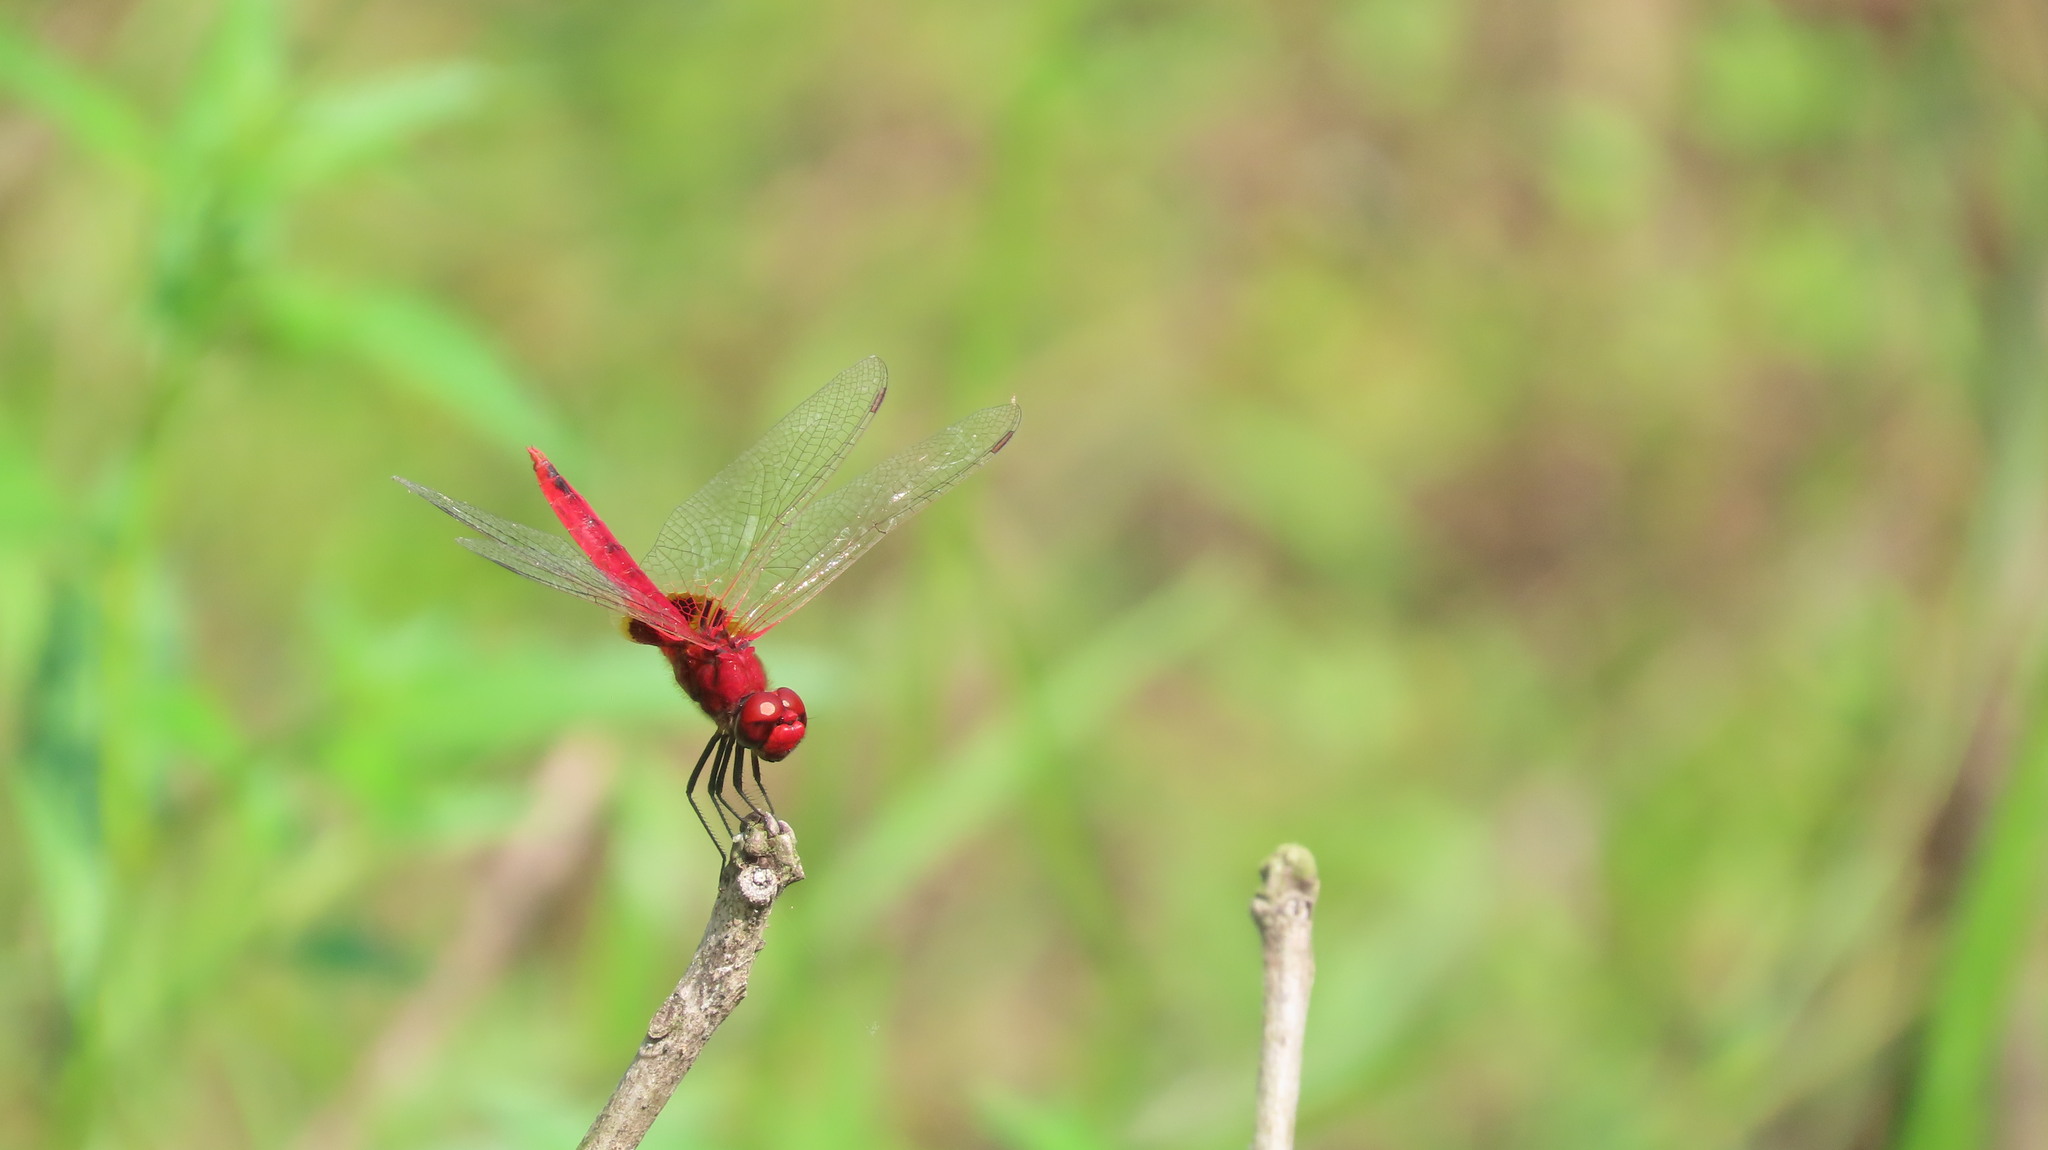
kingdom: Animalia
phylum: Arthropoda
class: Insecta
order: Odonata
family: Libellulidae
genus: Urothemis
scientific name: Urothemis signata
